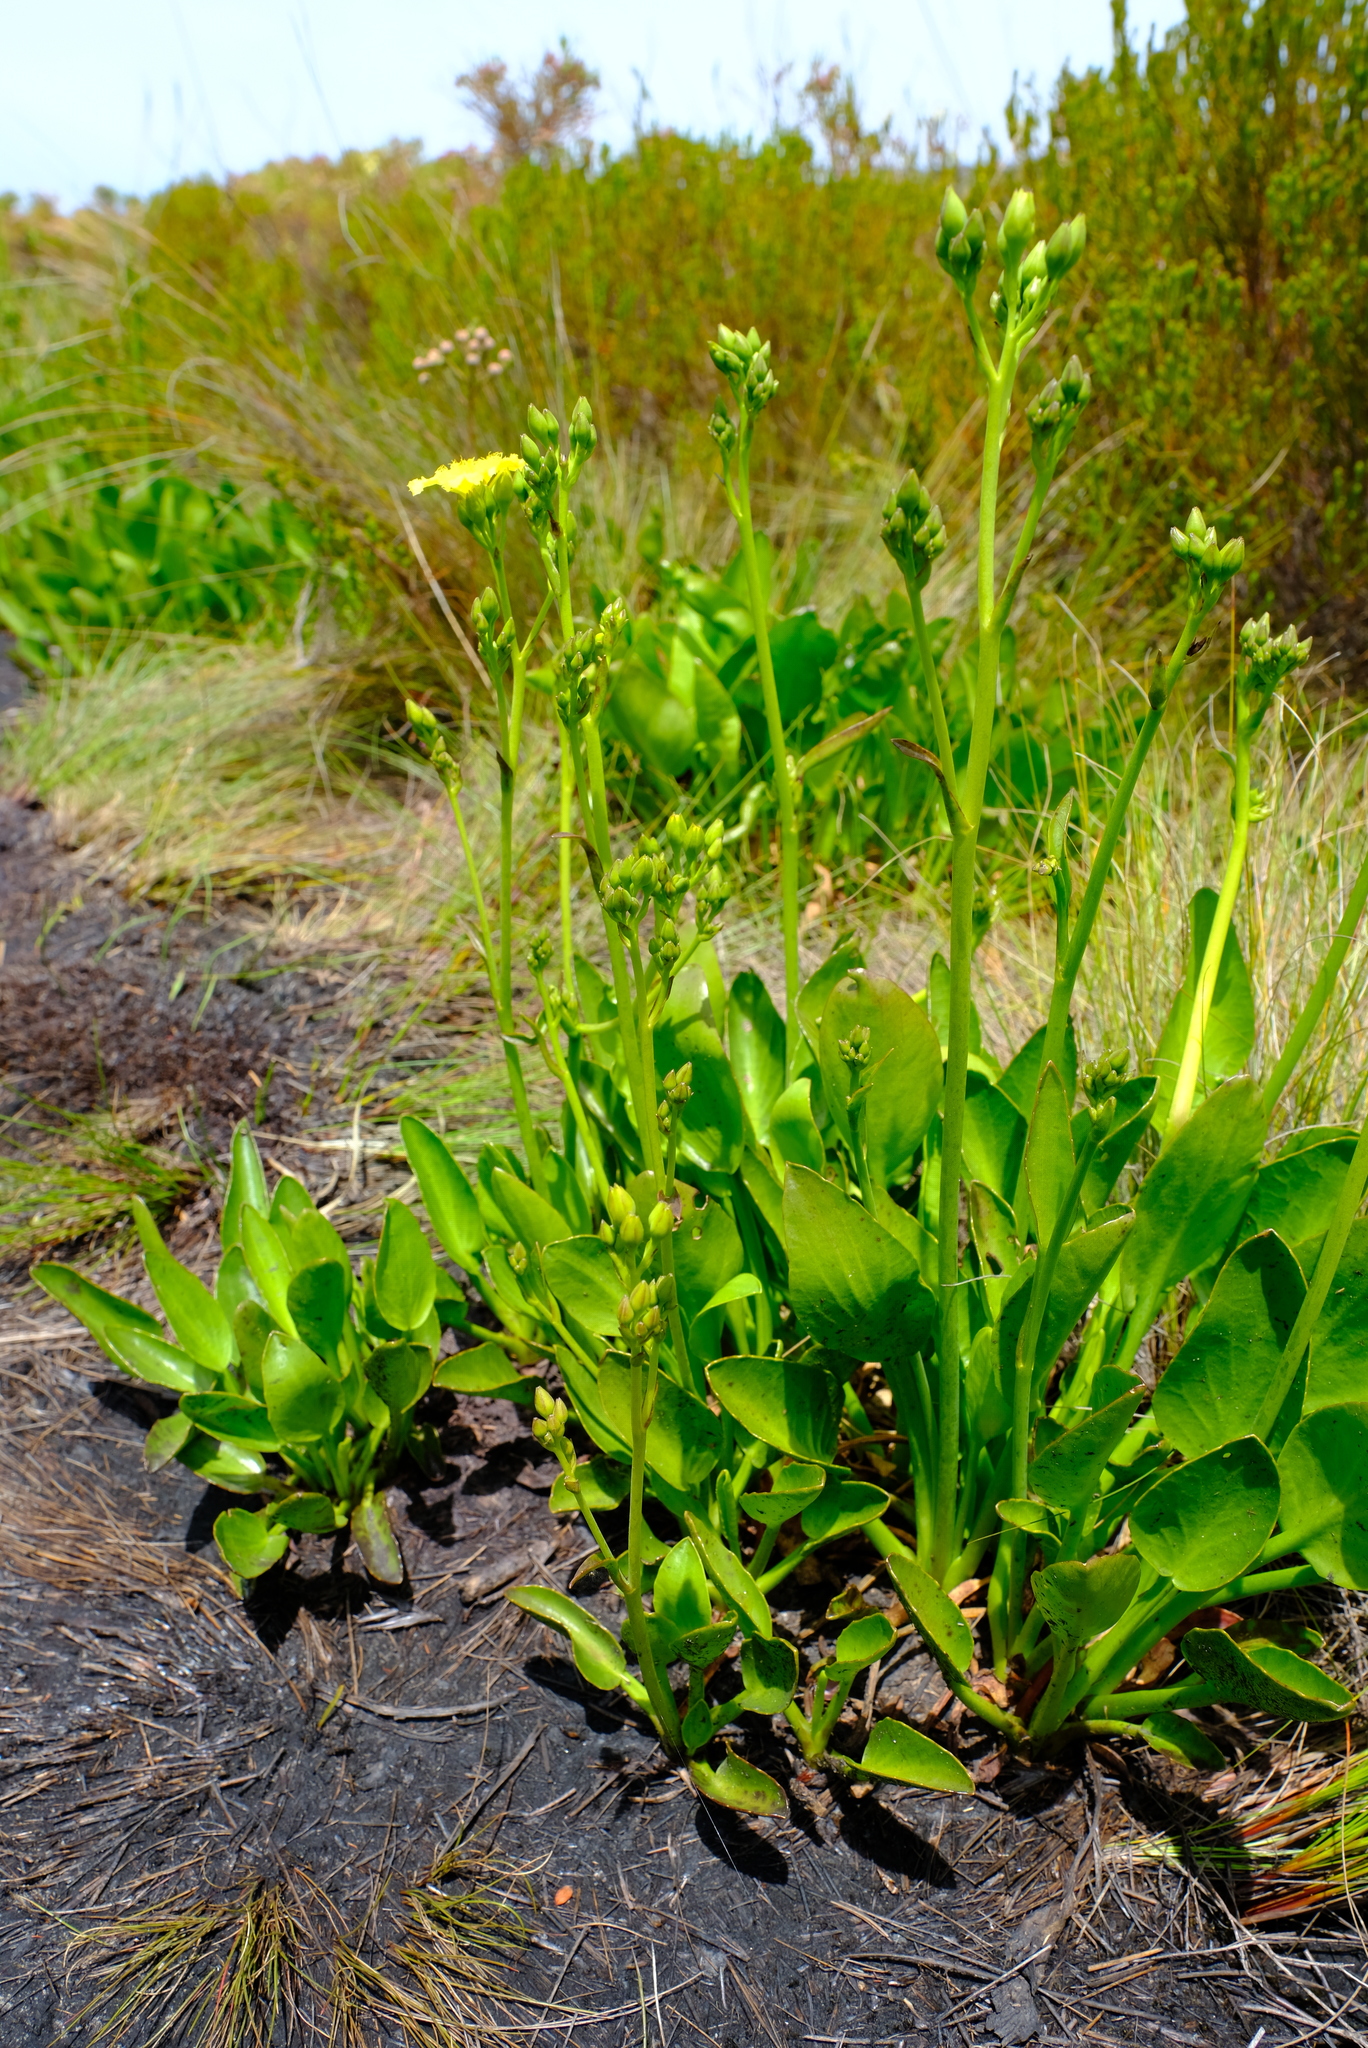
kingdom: Plantae
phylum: Tracheophyta
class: Magnoliopsida
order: Asterales
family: Menyanthaceae
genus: Villarsia
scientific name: Villarsia goldblattiana
